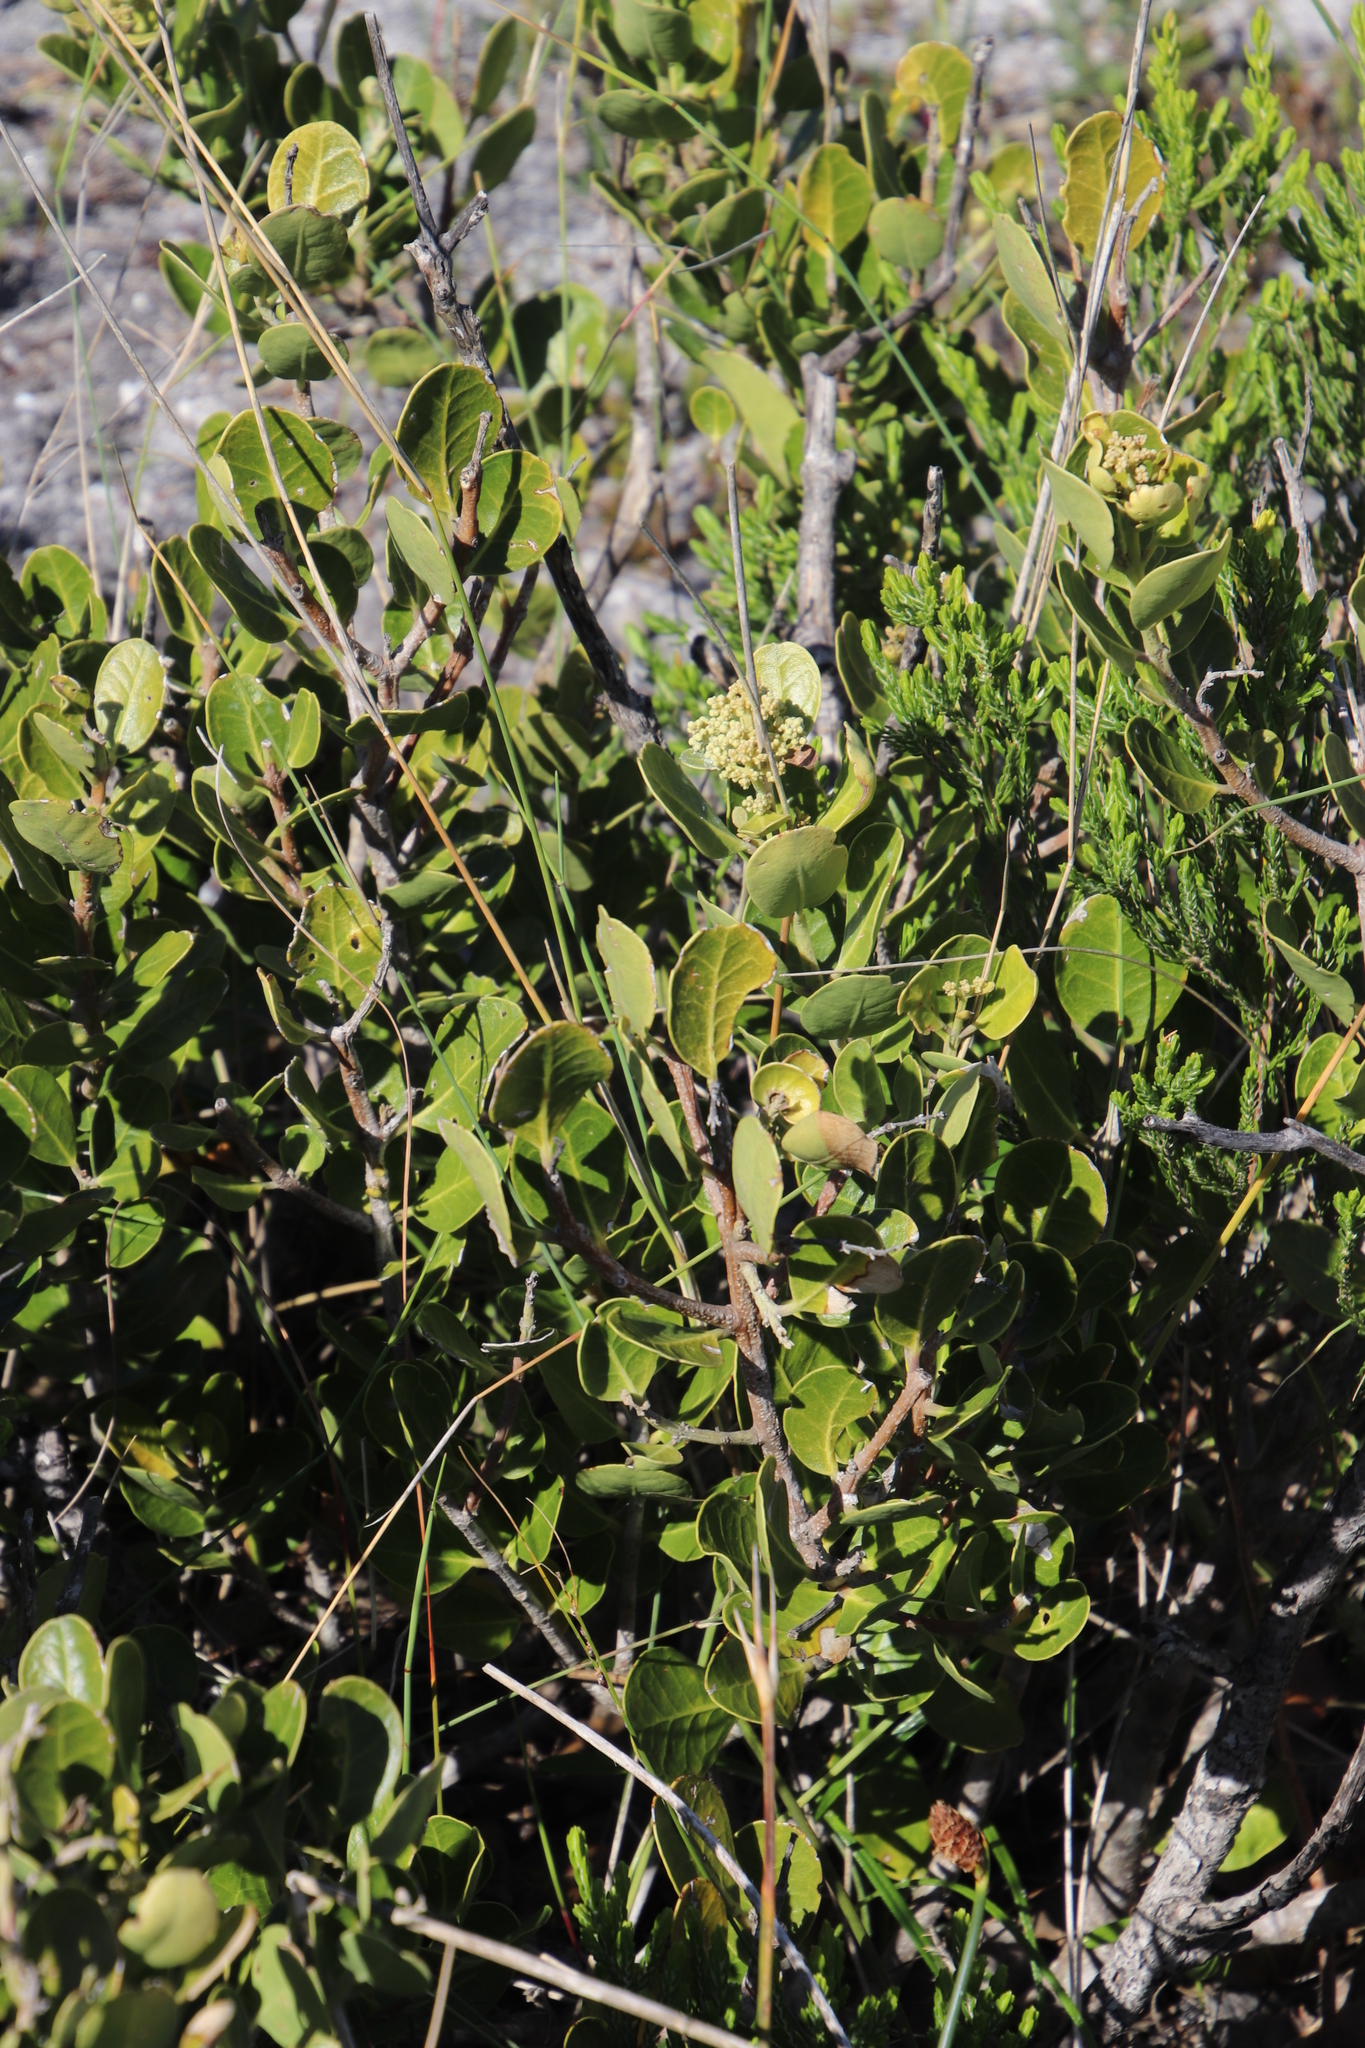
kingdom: Plantae
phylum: Tracheophyta
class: Magnoliopsida
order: Lamiales
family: Oleaceae
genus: Olea
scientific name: Olea capensis
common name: Black ironwood
